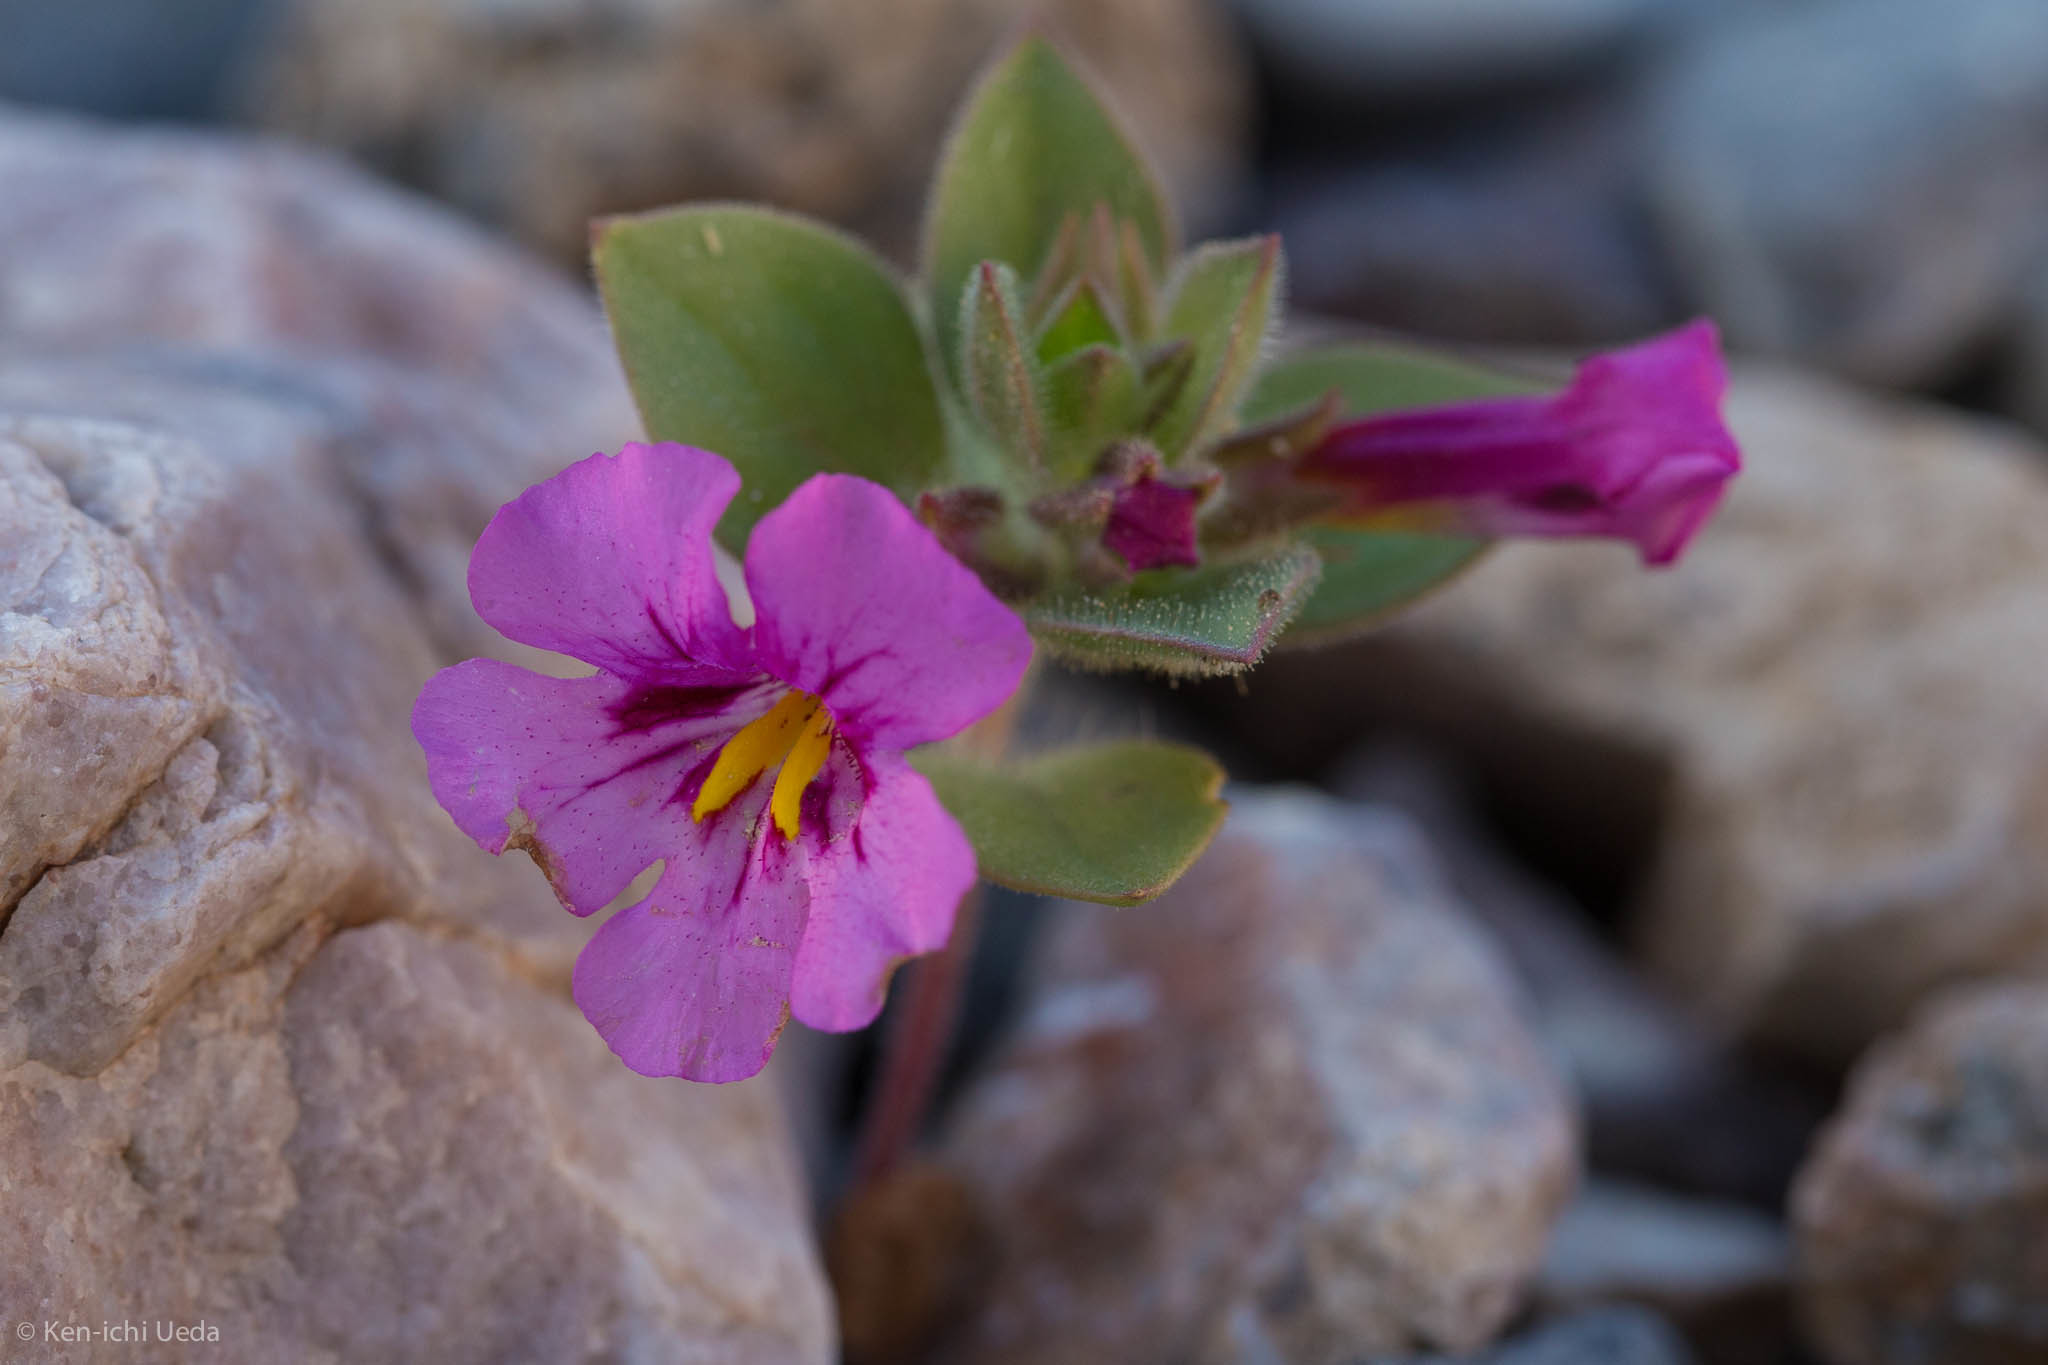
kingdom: Plantae
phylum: Tracheophyta
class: Magnoliopsida
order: Lamiales
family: Phrymaceae
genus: Diplacus
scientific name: Diplacus bigelovii
